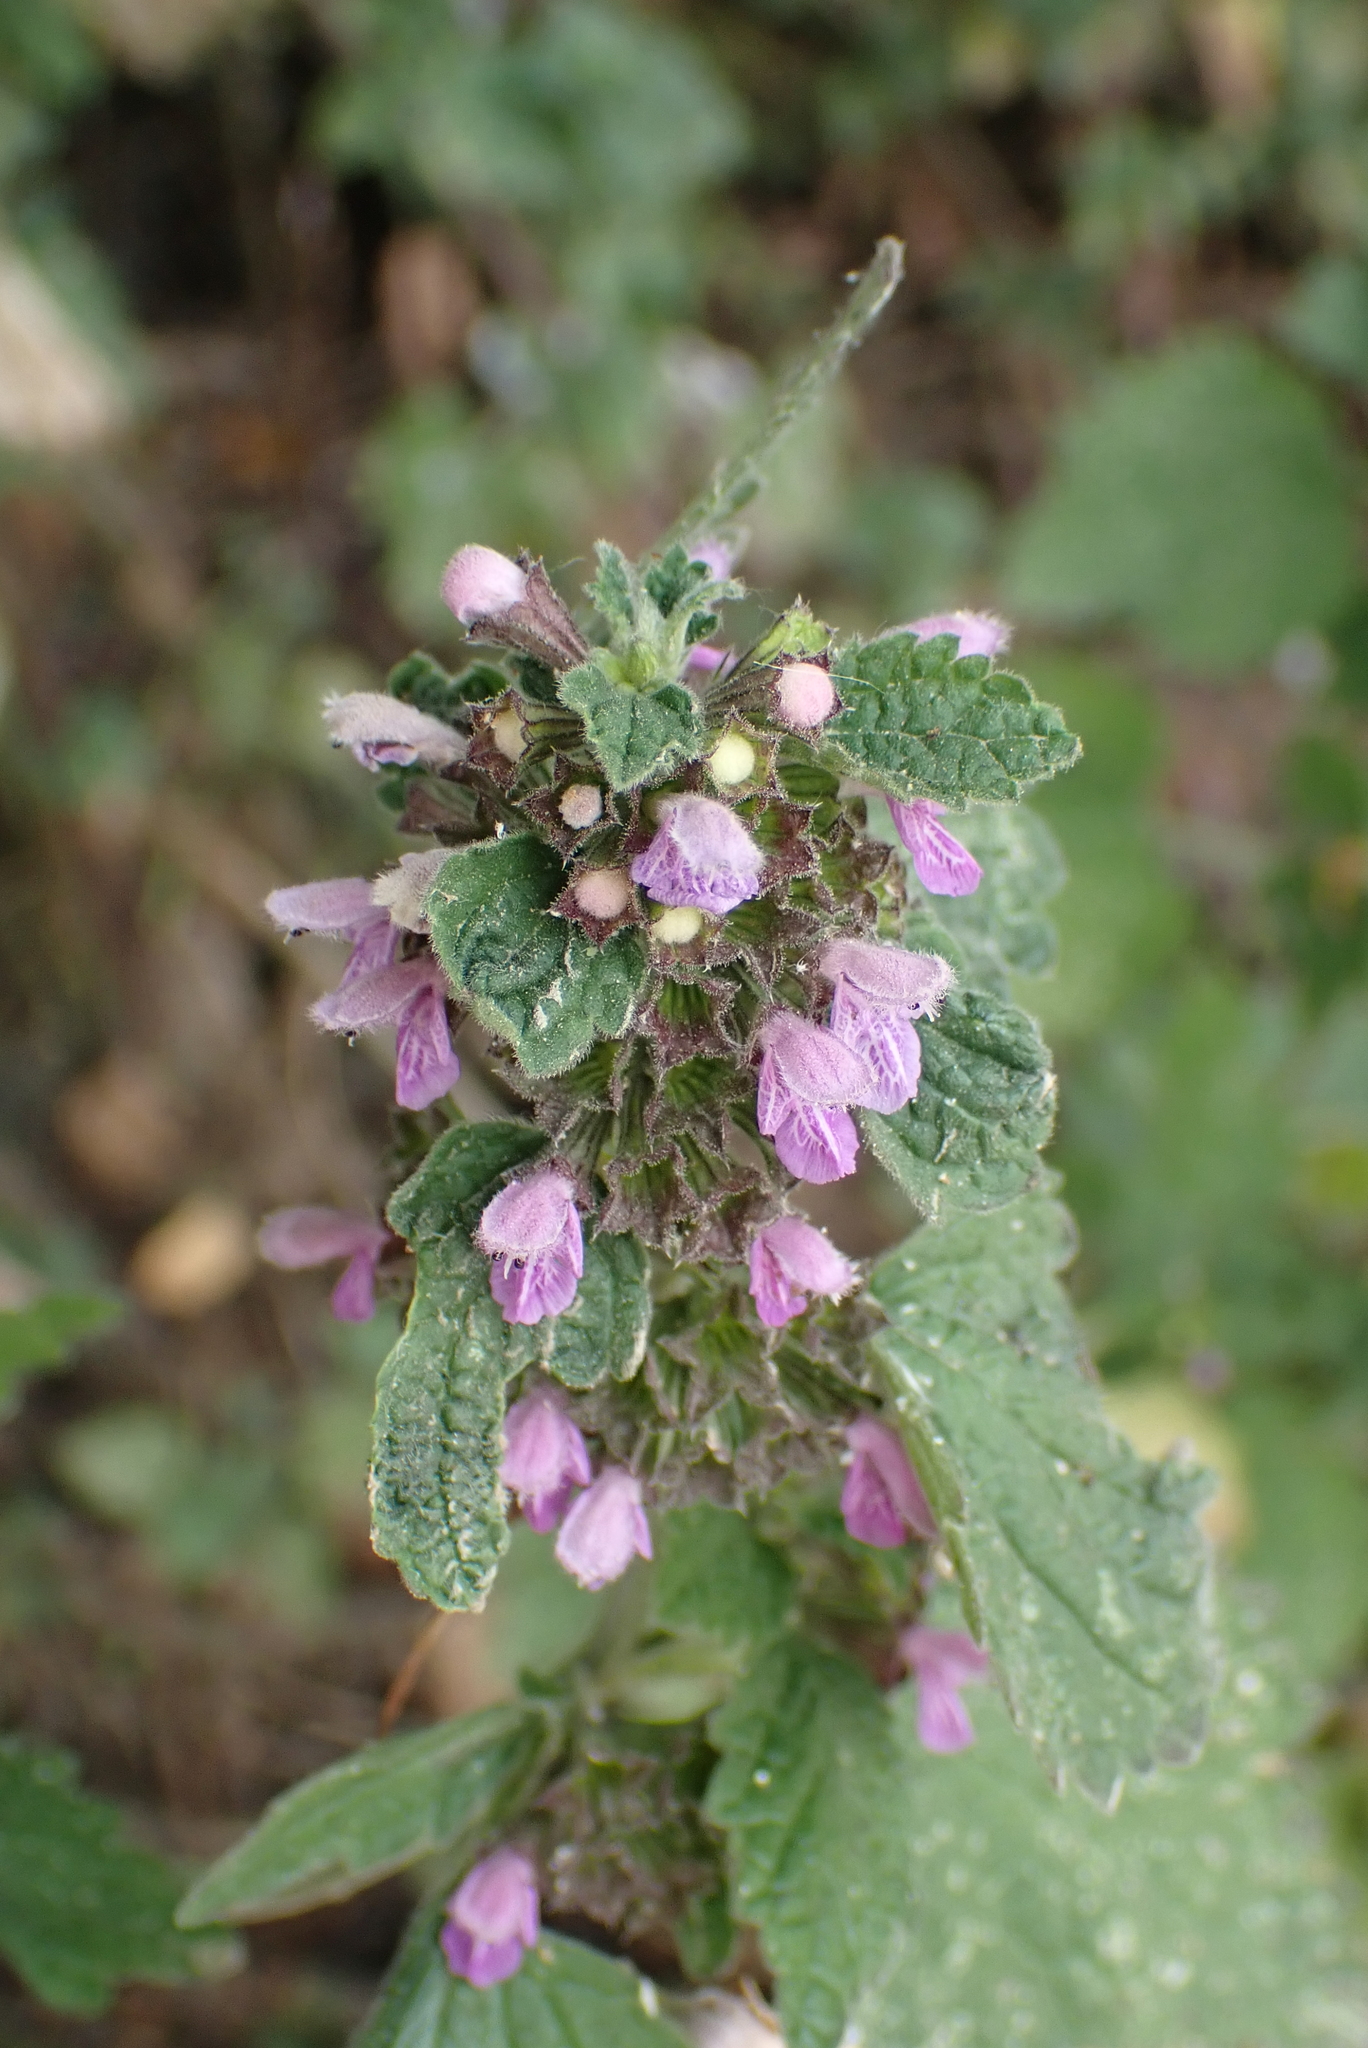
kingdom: Plantae
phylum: Tracheophyta
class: Magnoliopsida
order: Lamiales
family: Lamiaceae
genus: Ballota
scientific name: Ballota nigra
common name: Black horehound
